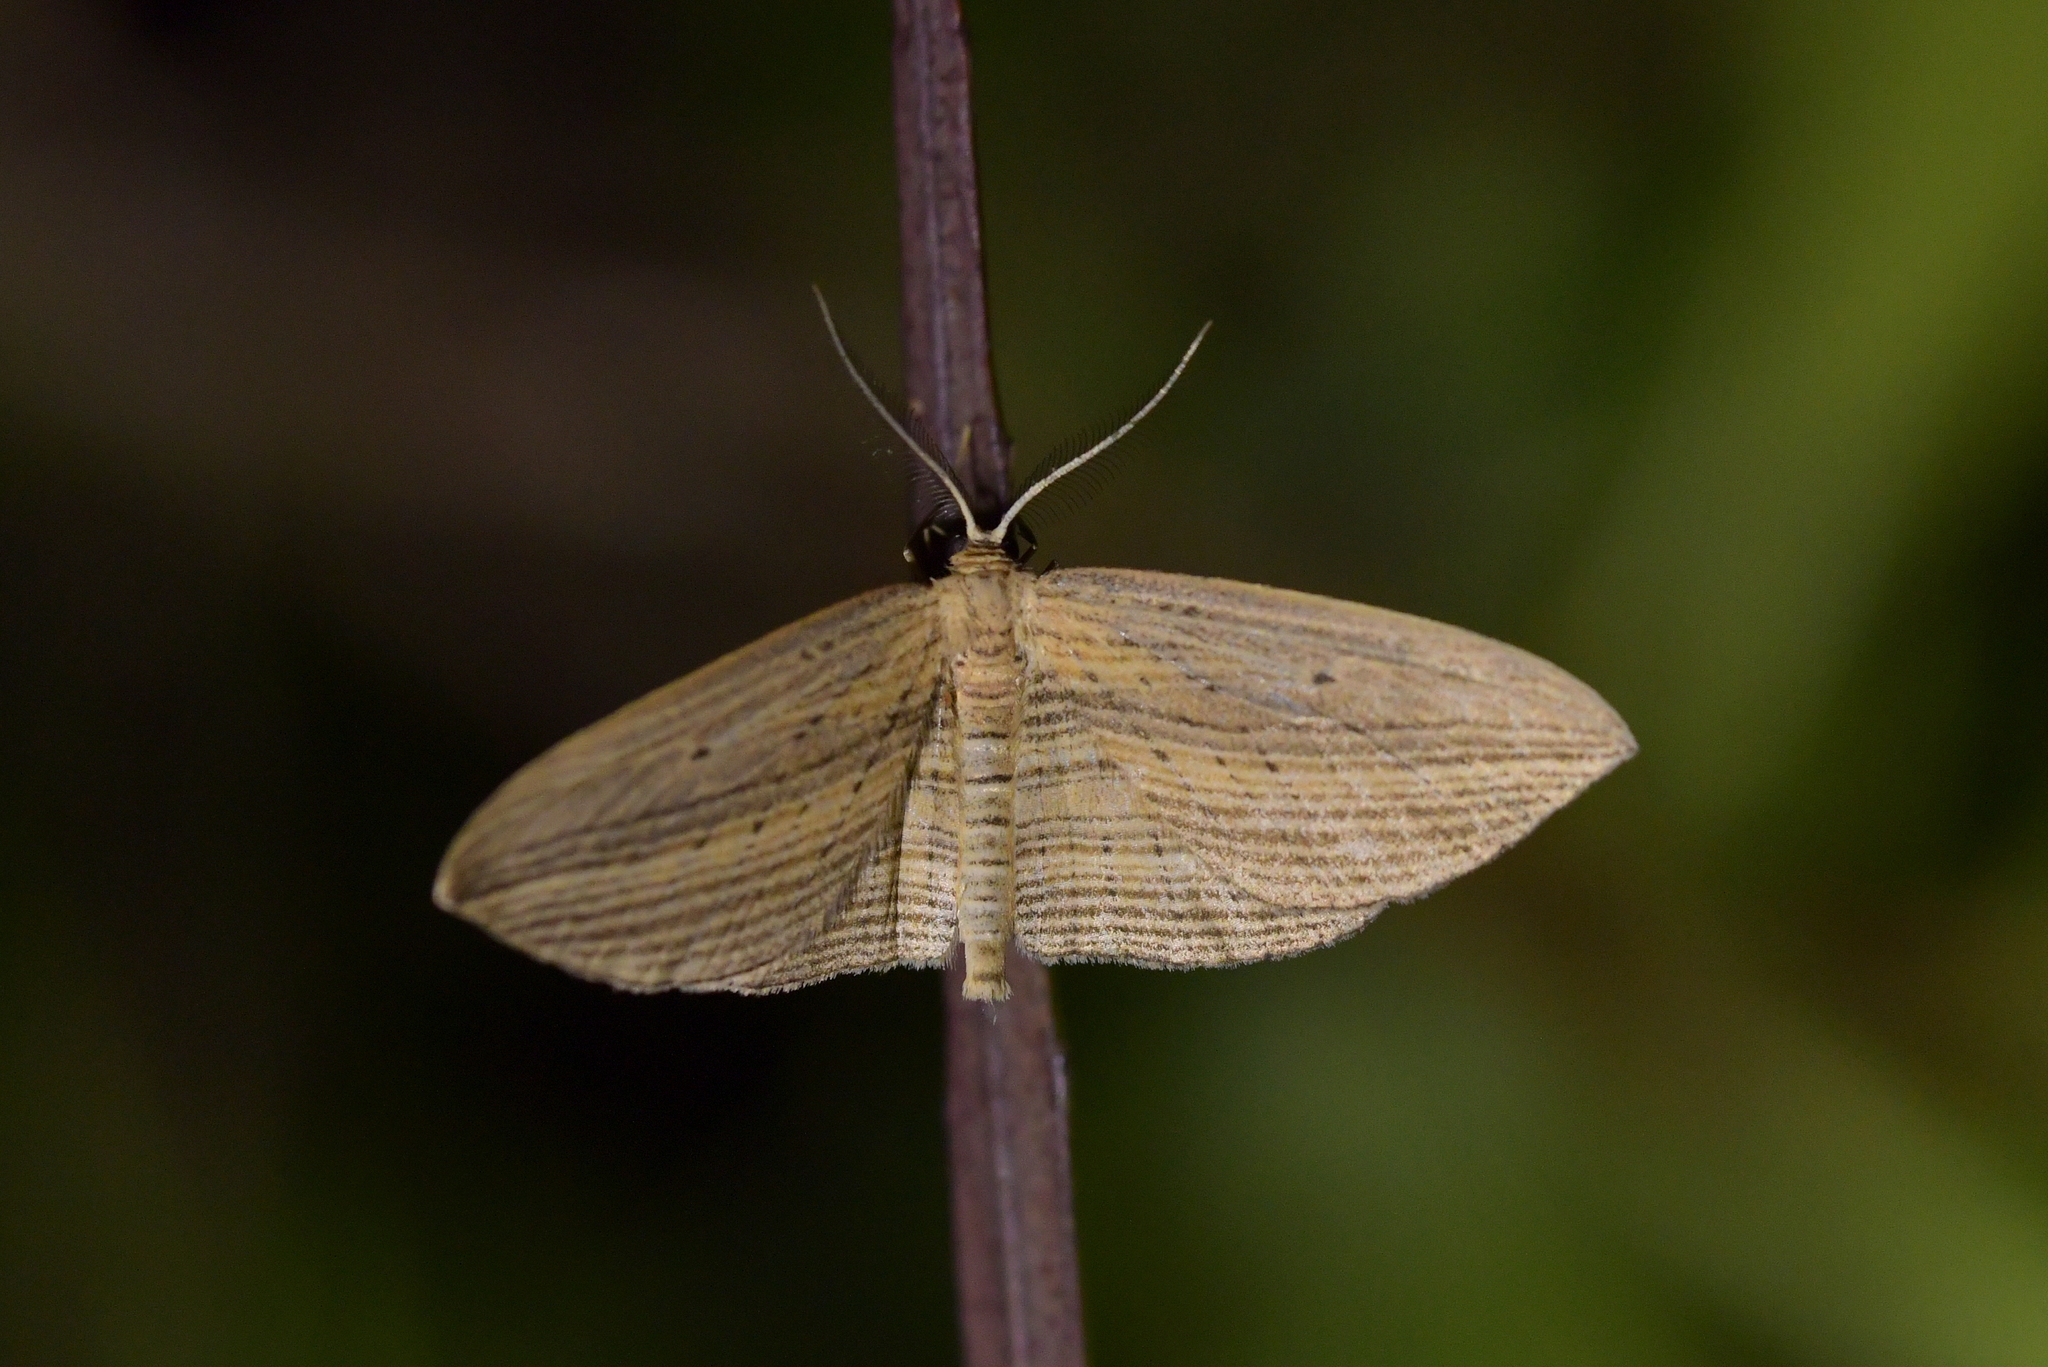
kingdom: Animalia
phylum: Arthropoda
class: Insecta
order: Lepidoptera
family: Geometridae
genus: Epiphryne
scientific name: Epiphryne verriculata
